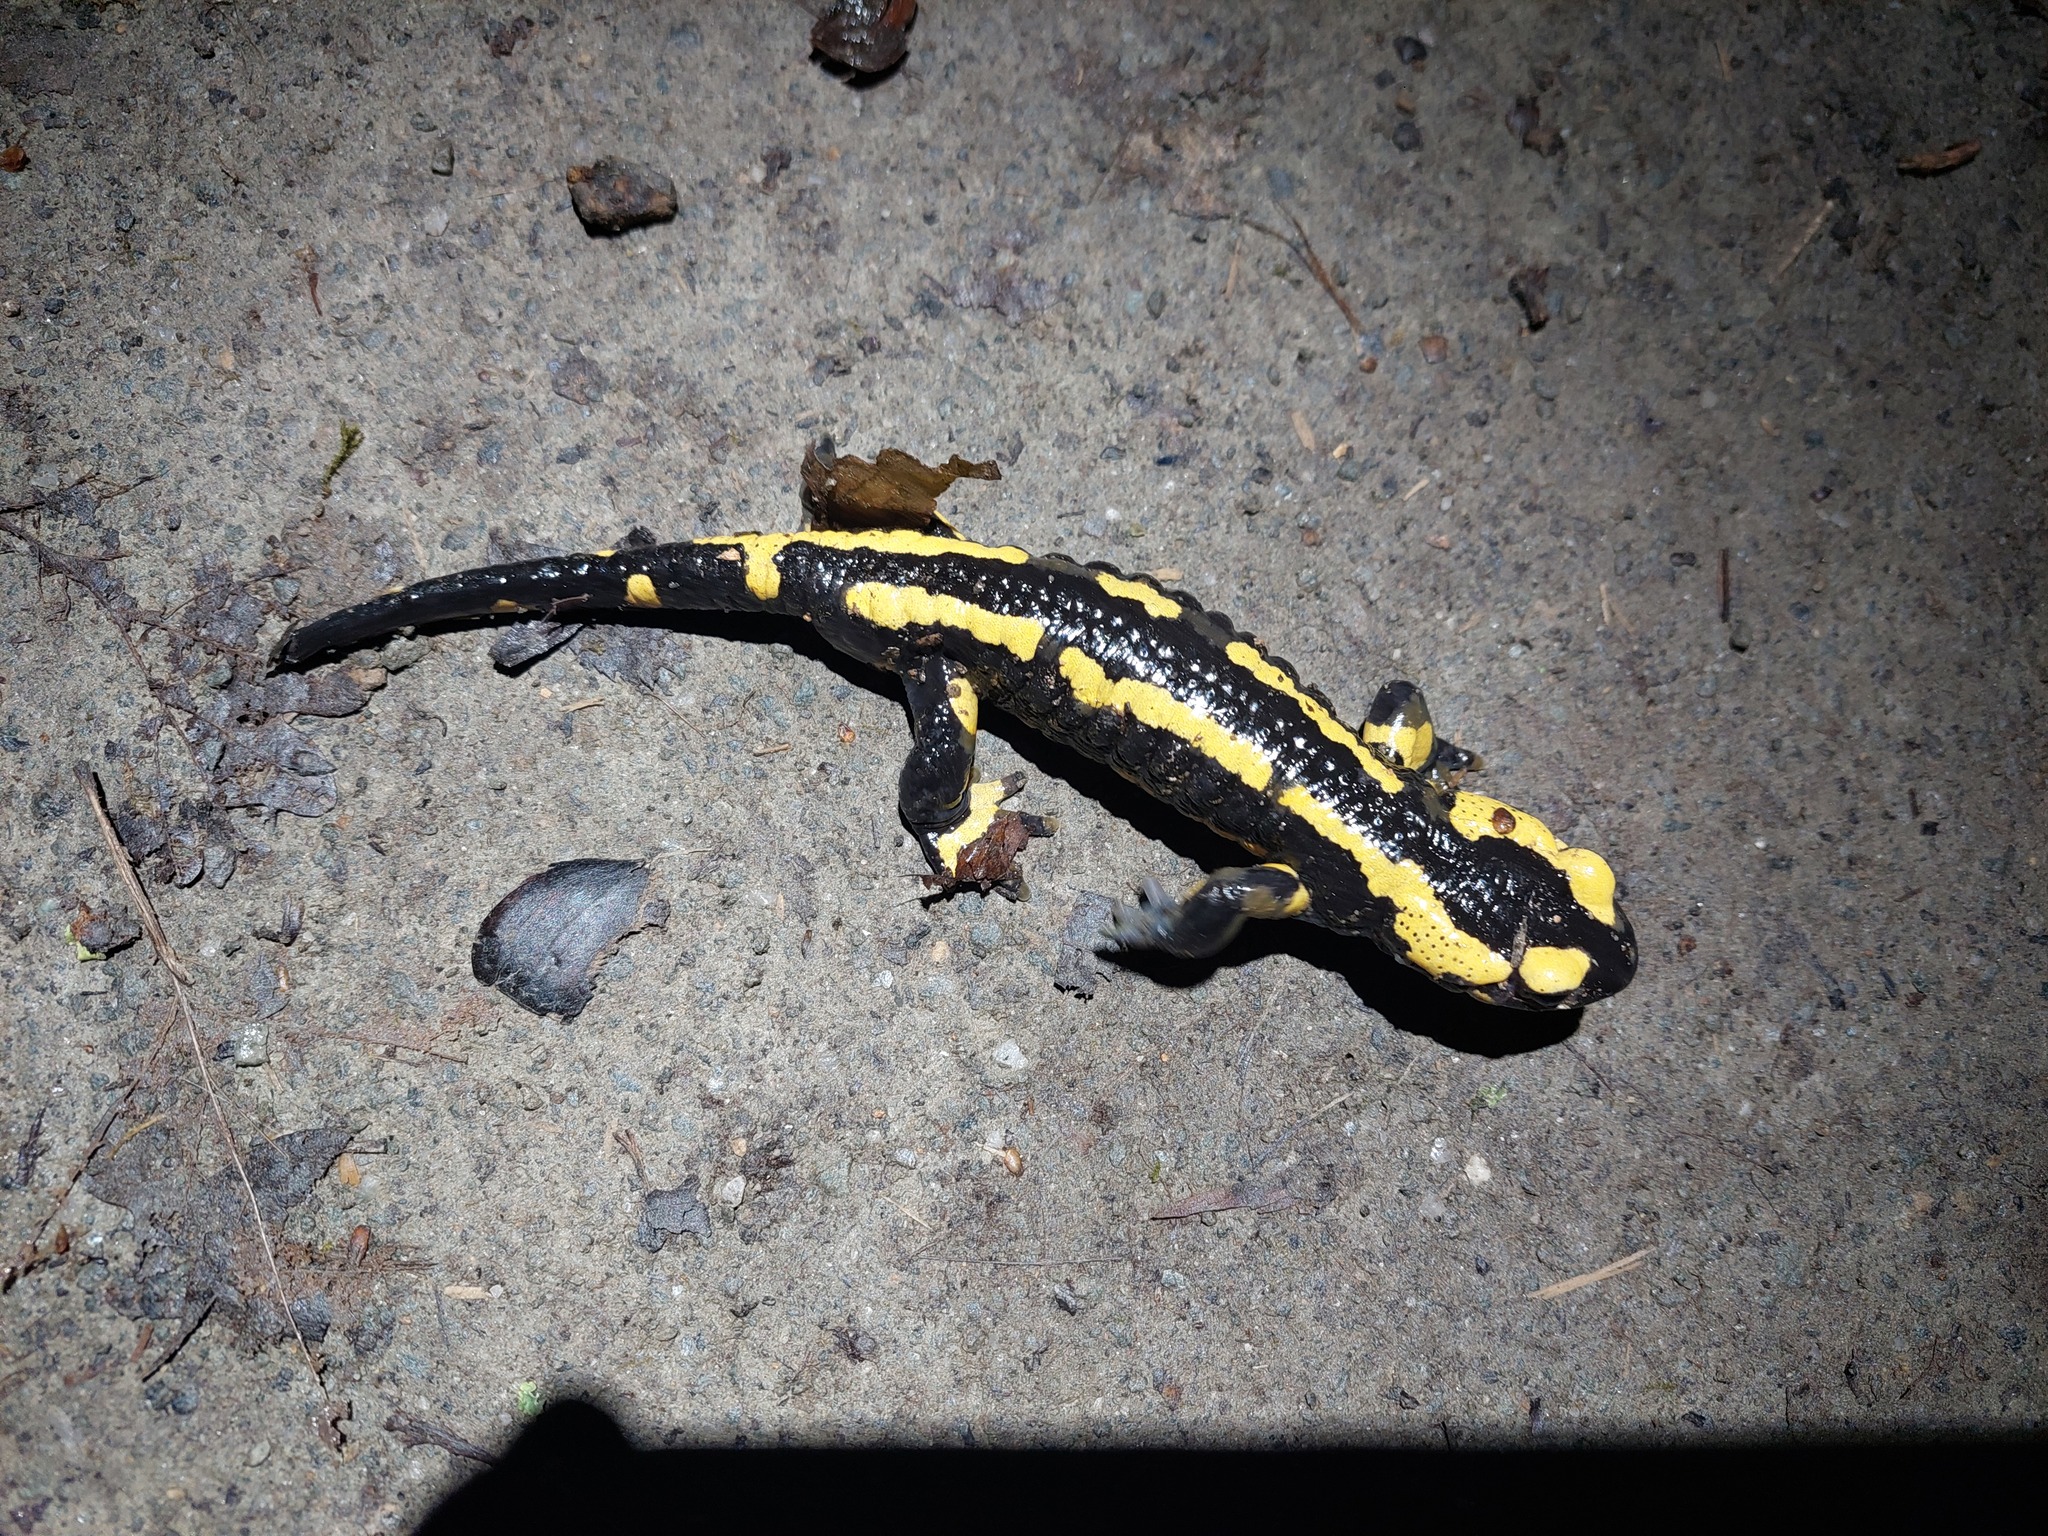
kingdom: Animalia
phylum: Chordata
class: Amphibia
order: Caudata
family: Salamandridae
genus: Salamandra
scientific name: Salamandra salamandra
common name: Fire salamander
